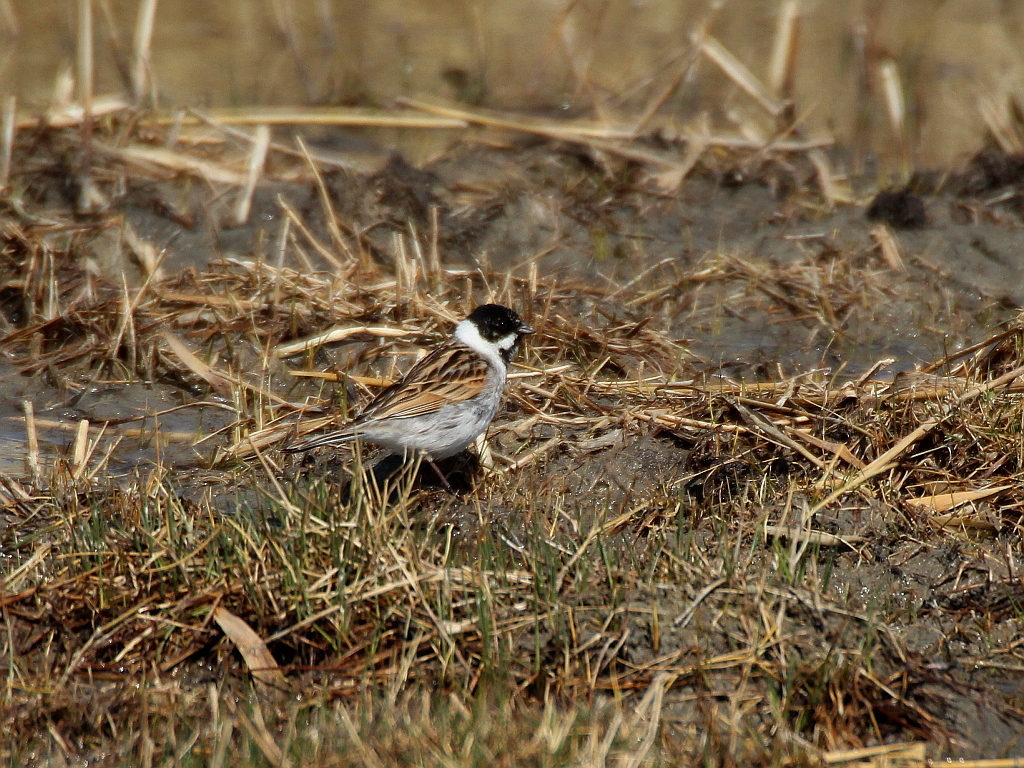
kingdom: Animalia
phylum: Chordata
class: Aves
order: Passeriformes
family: Emberizidae
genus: Emberiza
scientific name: Emberiza schoeniclus
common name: Reed bunting
